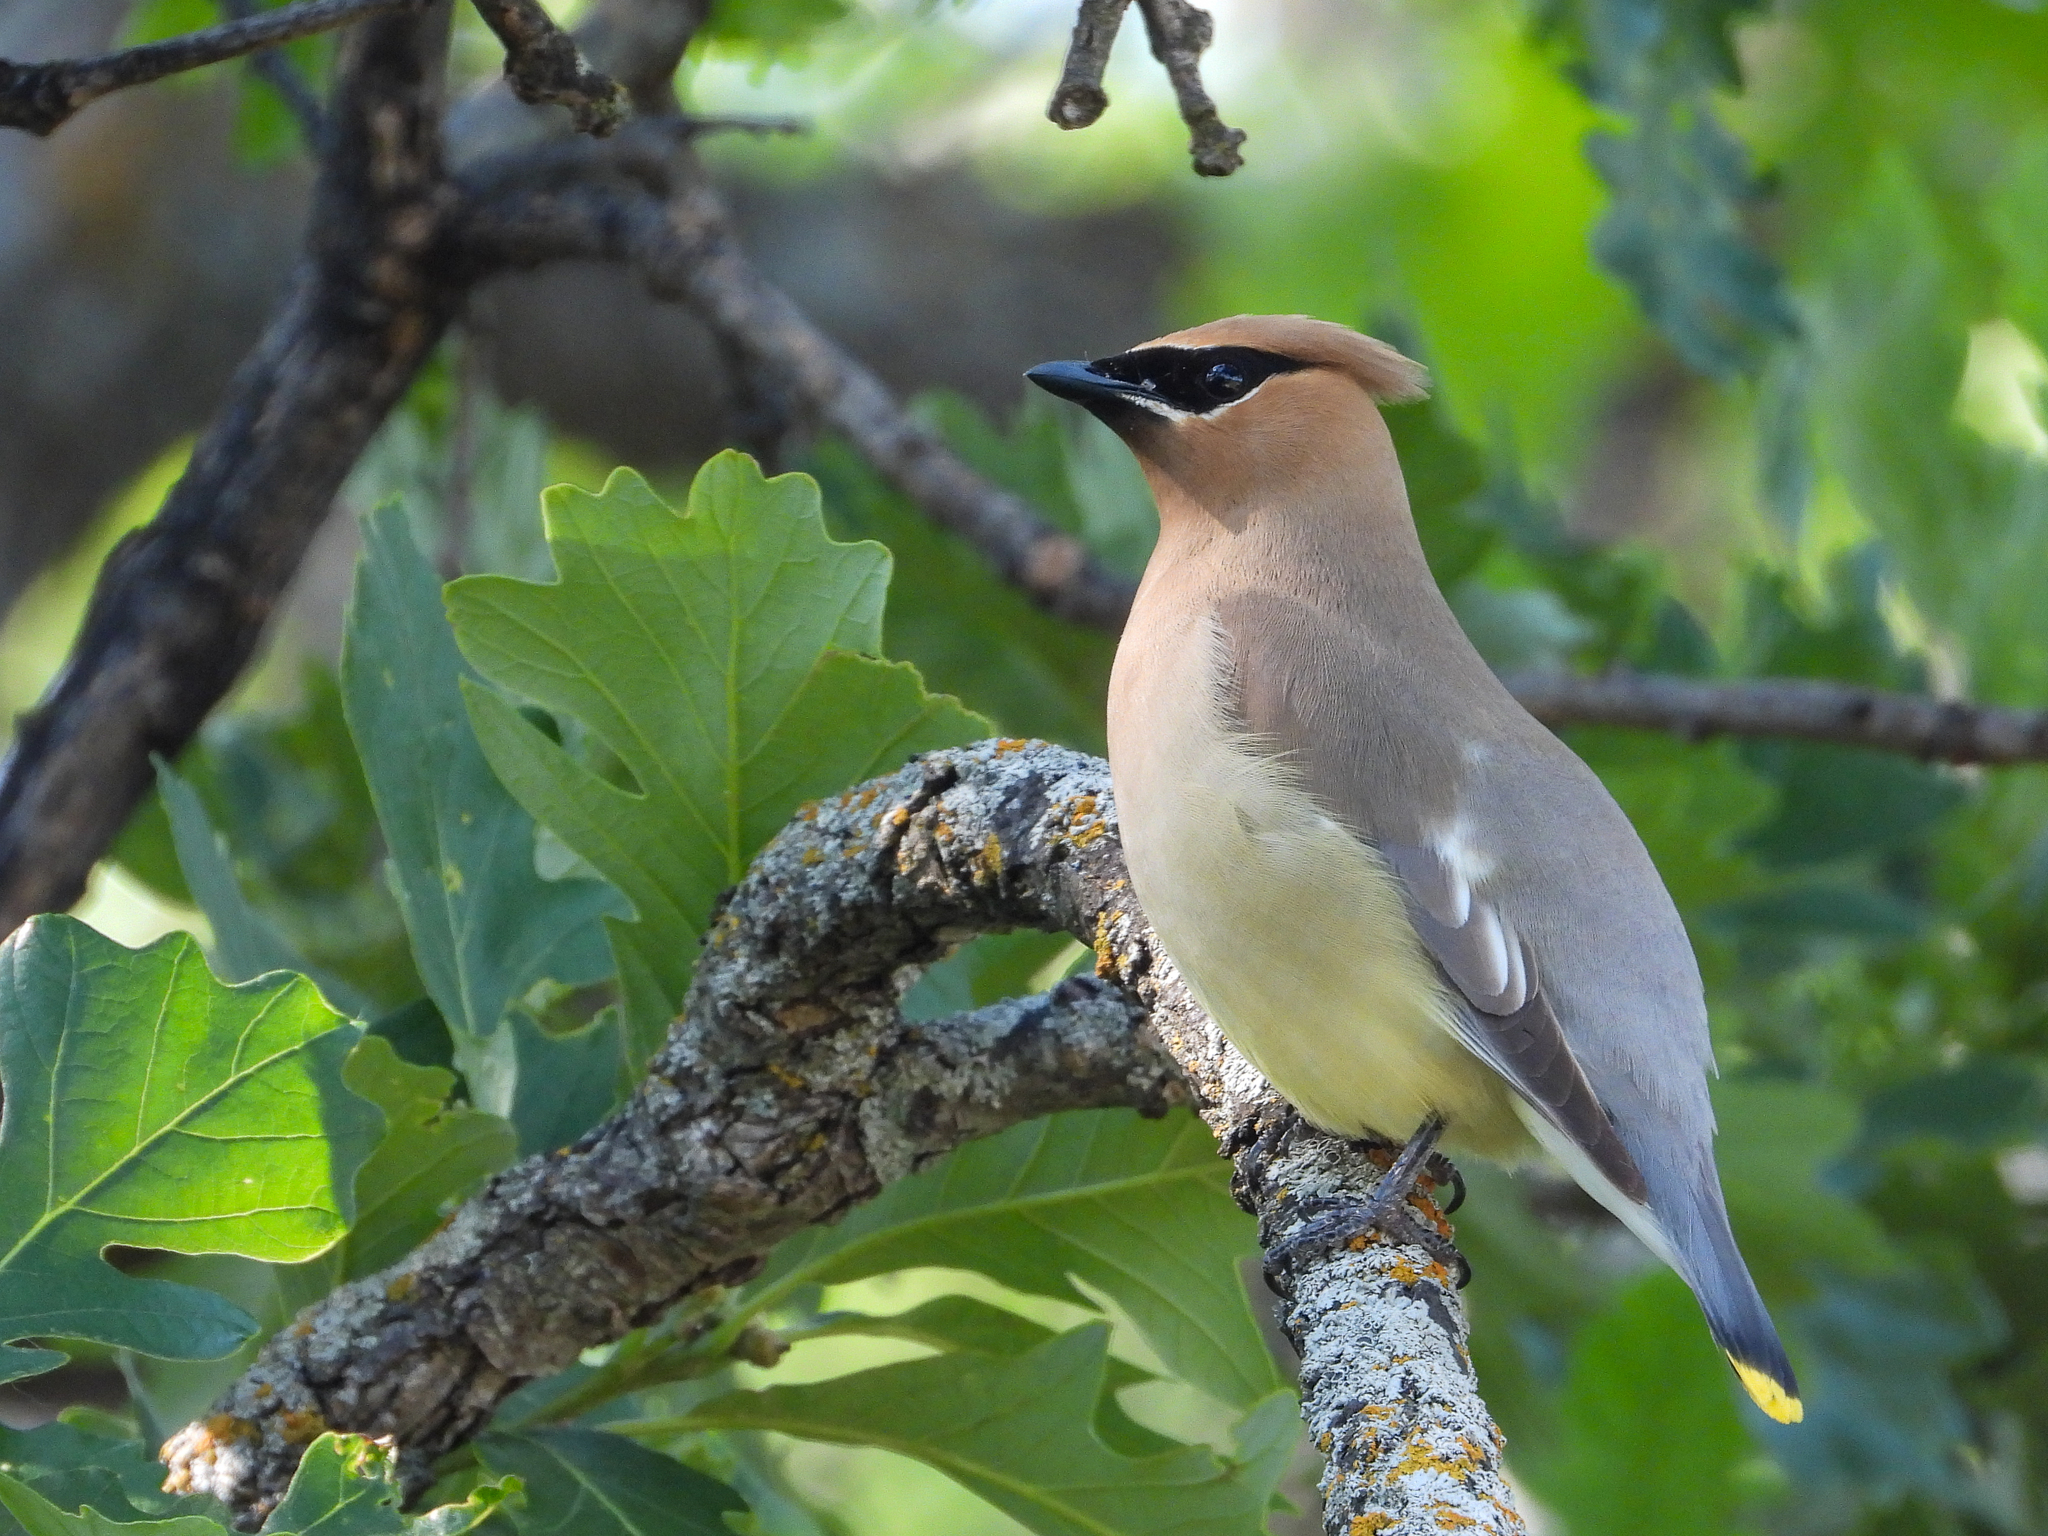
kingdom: Animalia
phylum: Chordata
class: Aves
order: Passeriformes
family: Bombycillidae
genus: Bombycilla
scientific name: Bombycilla cedrorum
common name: Cedar waxwing
